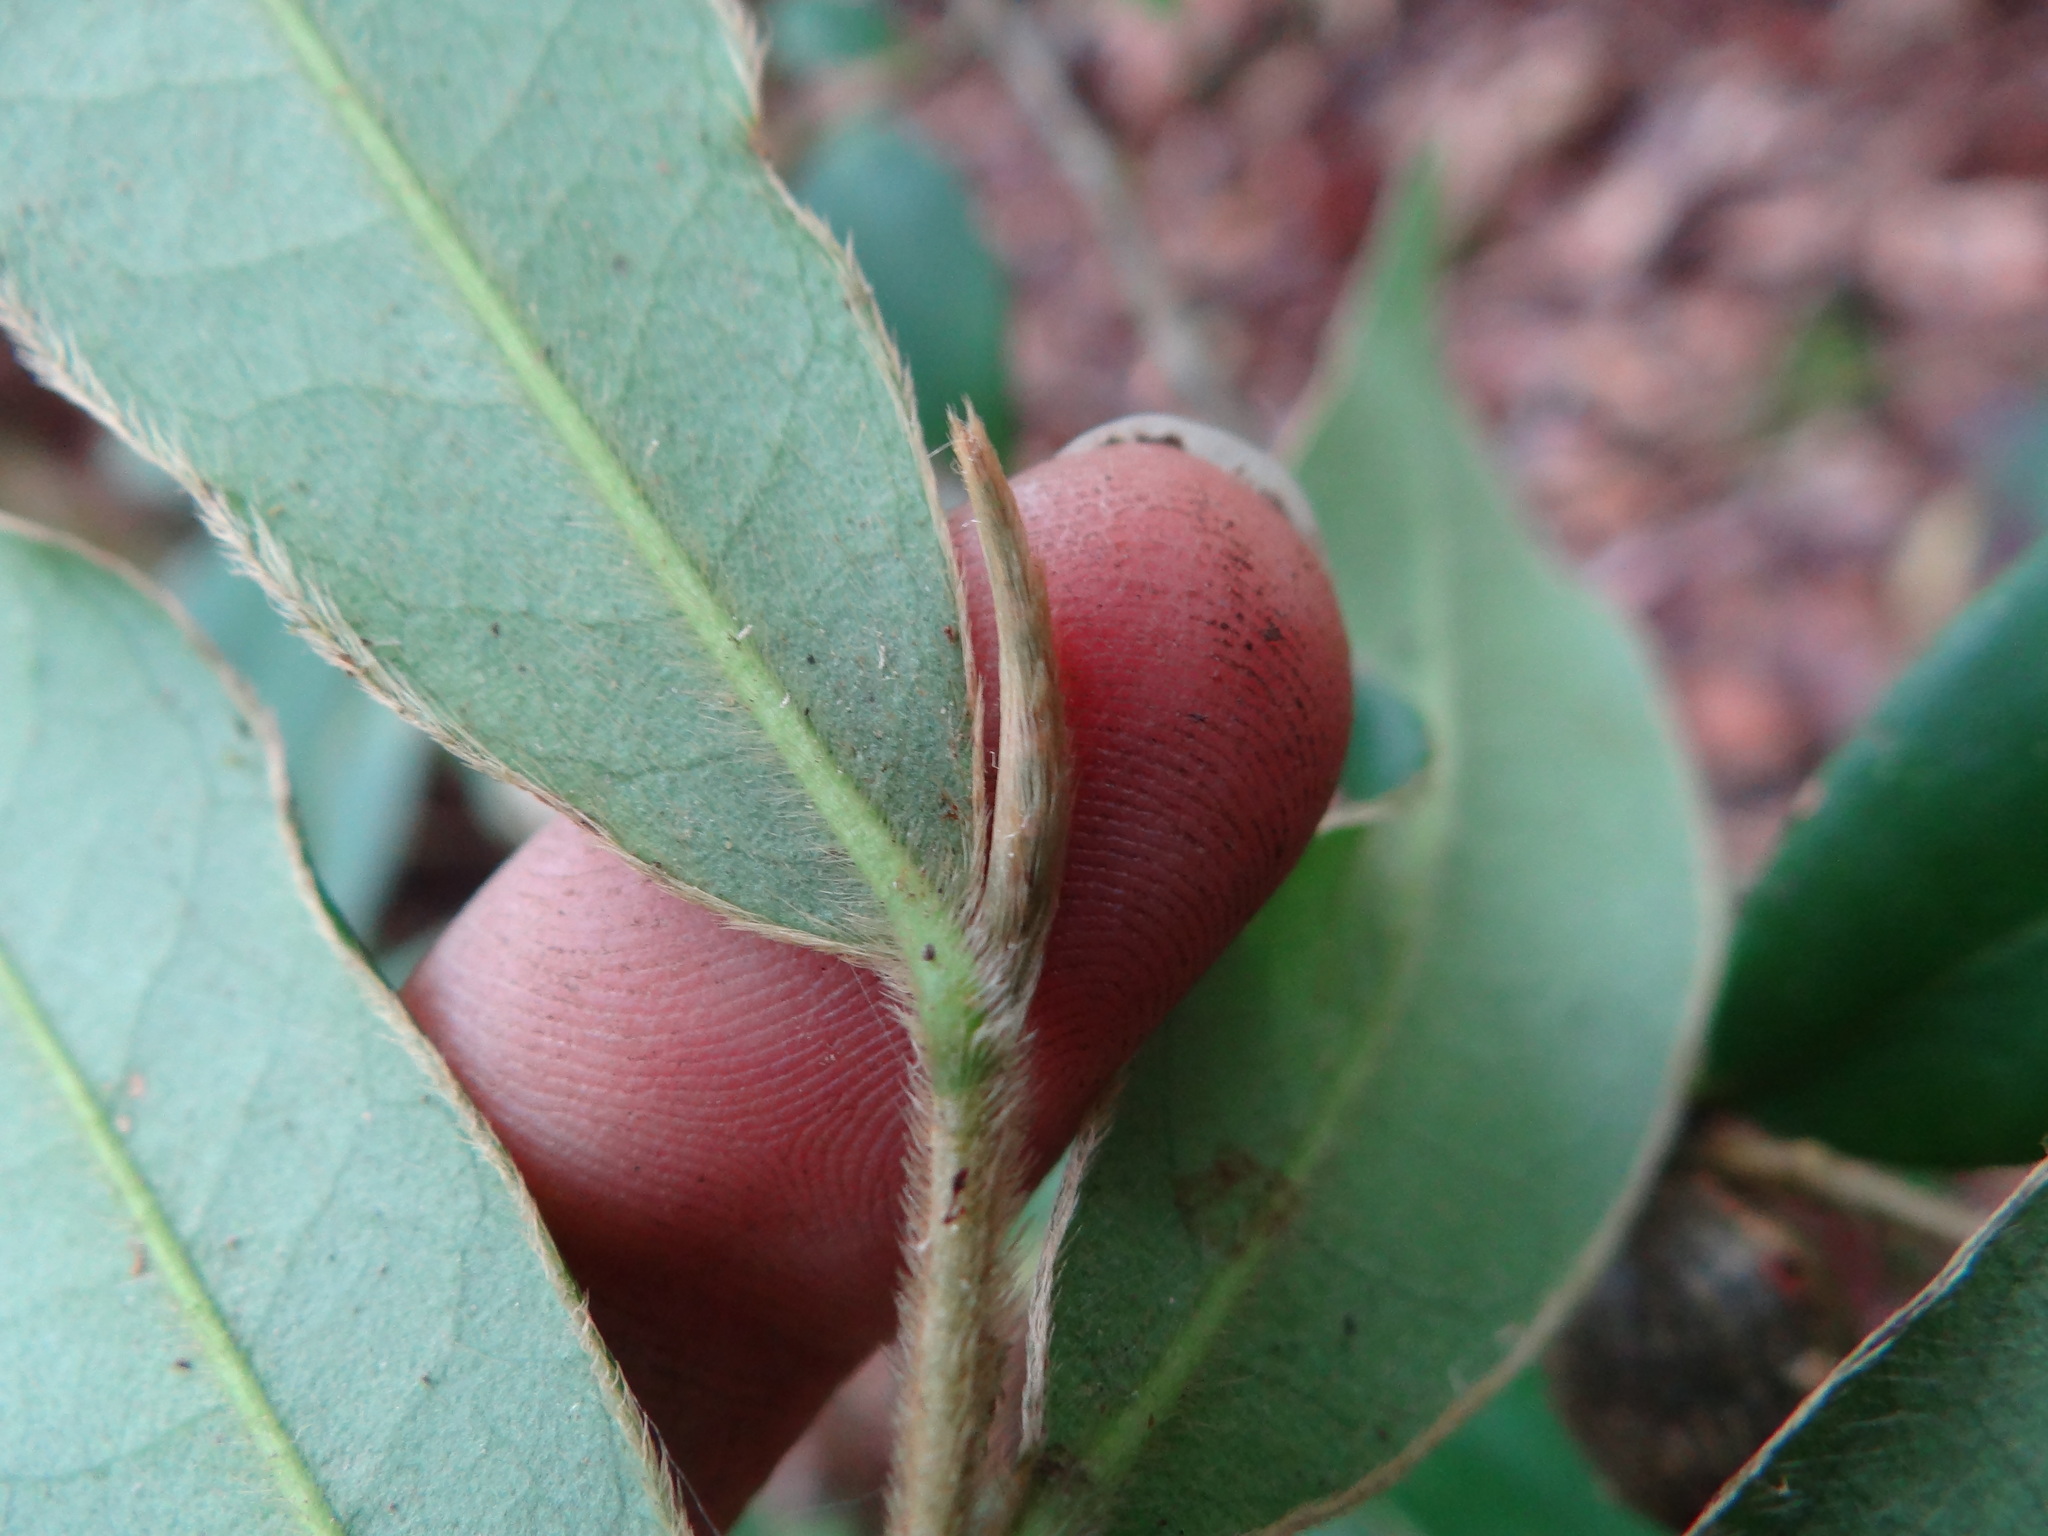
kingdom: Plantae
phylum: Tracheophyta
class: Magnoliopsida
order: Ericales
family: Pentaphylacaceae
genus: Adinandra
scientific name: Adinandra lasiostyla
